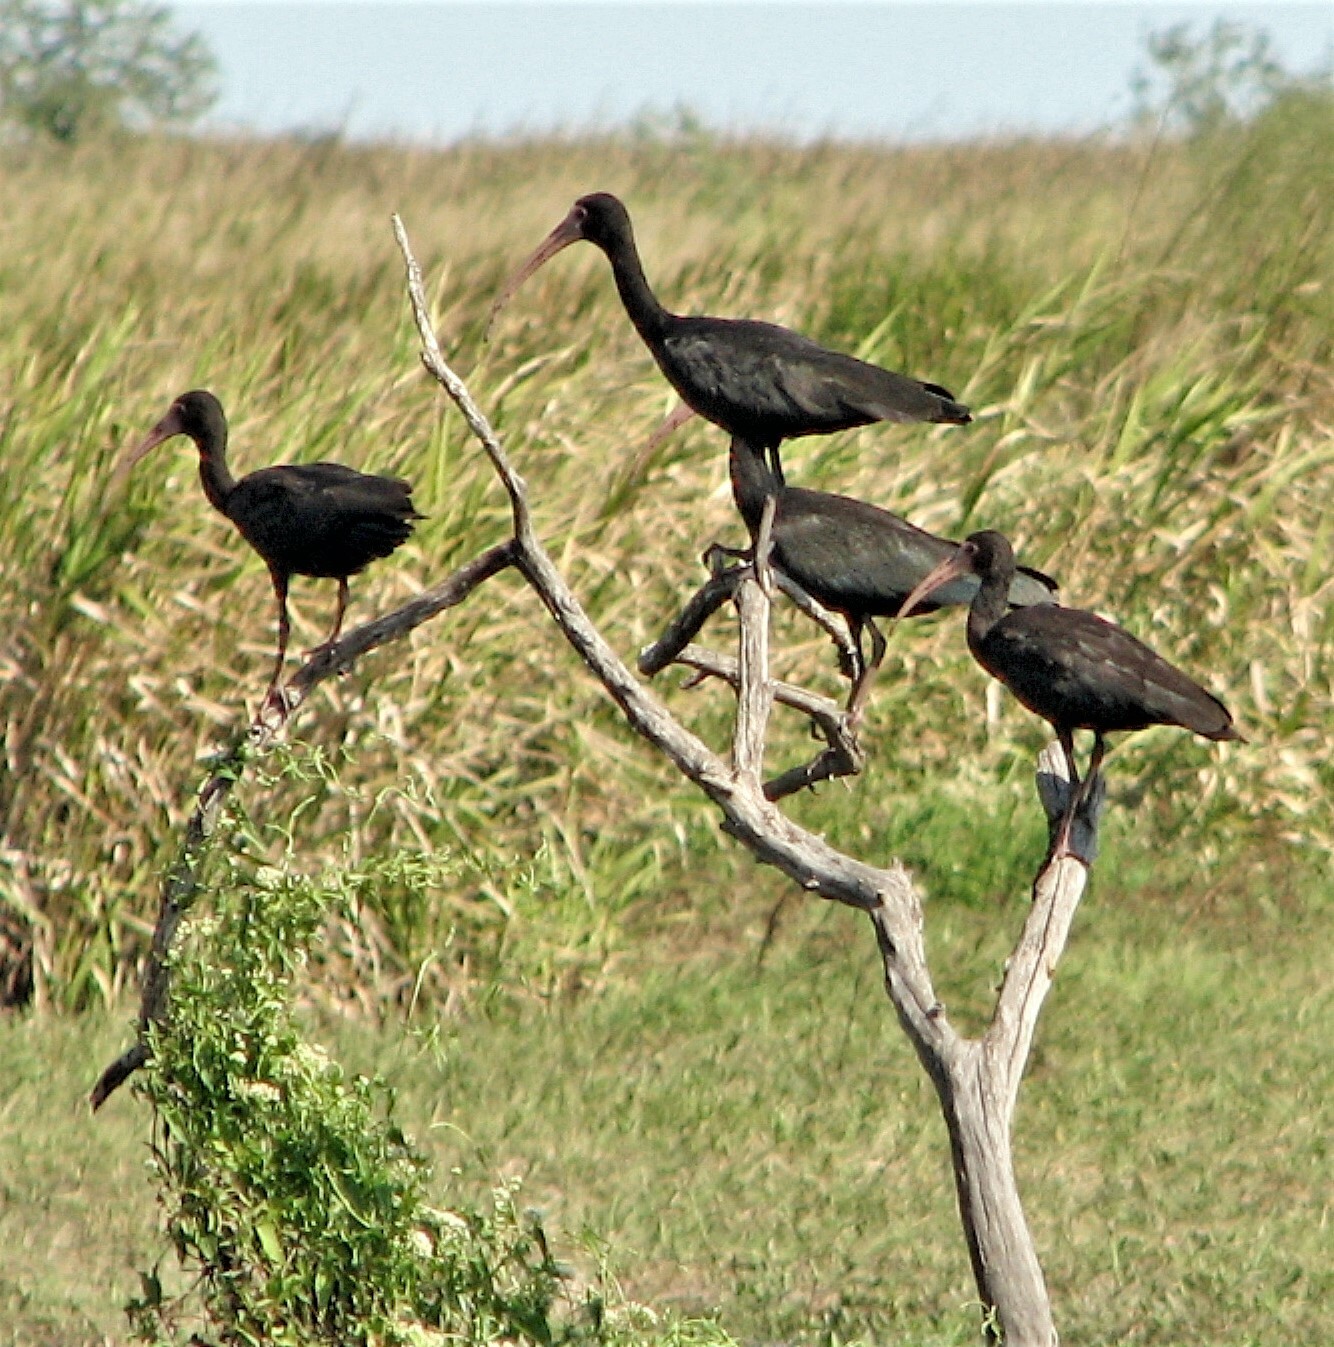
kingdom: Animalia
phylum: Chordata
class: Aves
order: Pelecaniformes
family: Threskiornithidae
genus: Phimosus
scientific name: Phimosus infuscatus
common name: Bare-faced ibis
